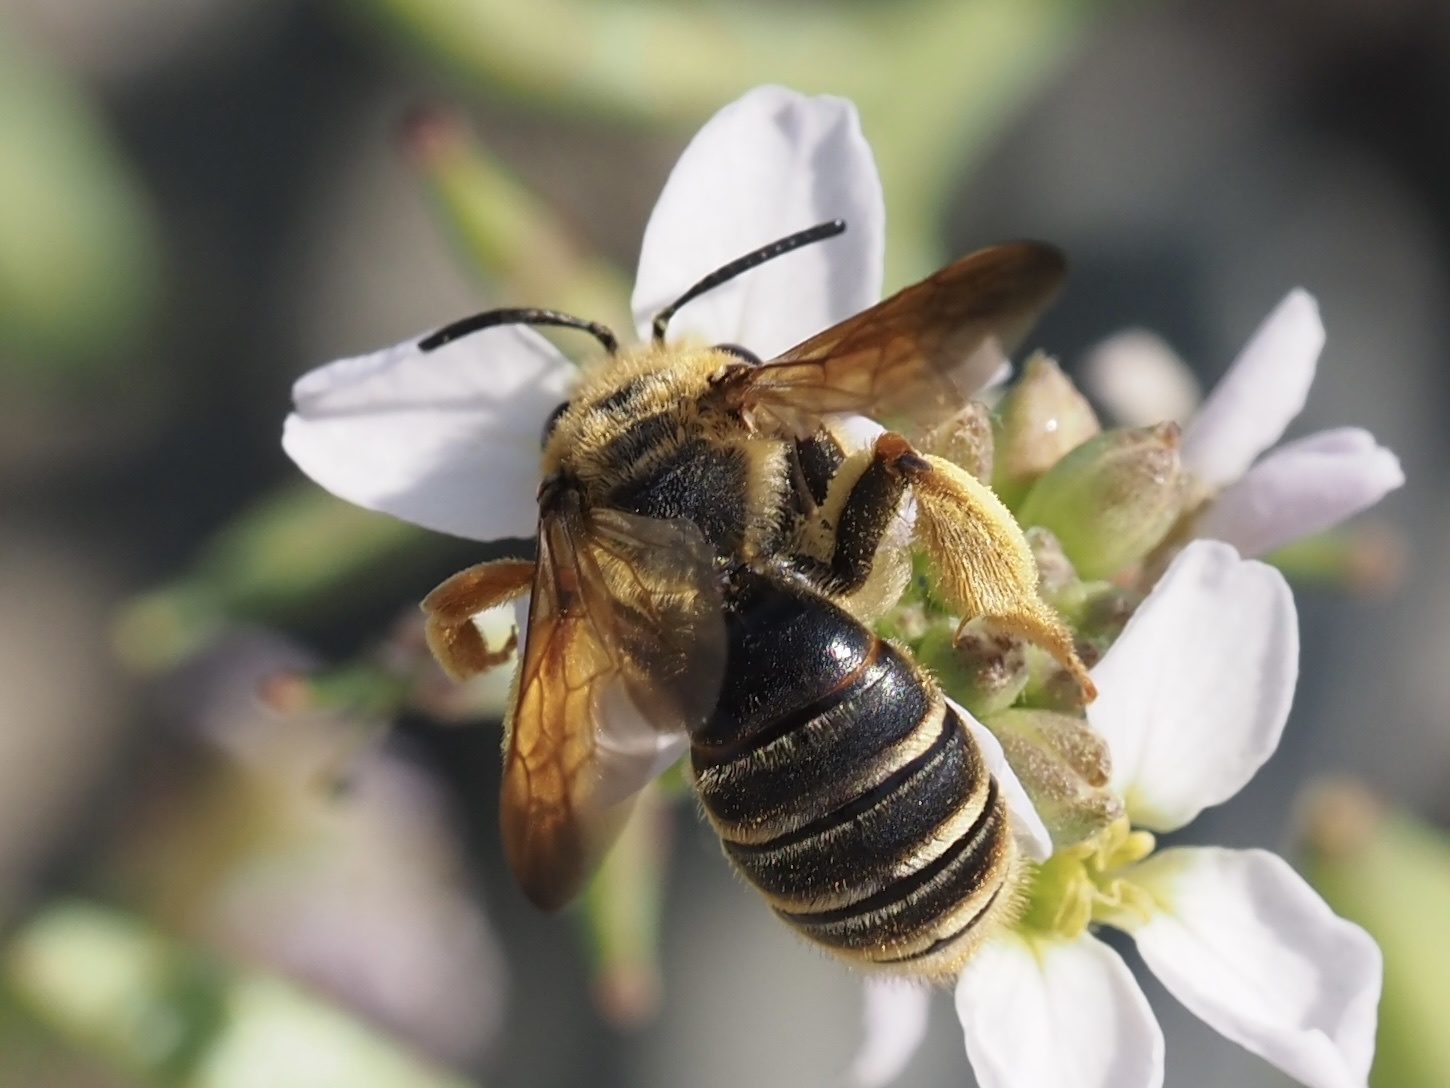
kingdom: Animalia
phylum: Arthropoda
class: Insecta
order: Hymenoptera
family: Andrenidae
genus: Andrena
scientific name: Andrena prunorum
